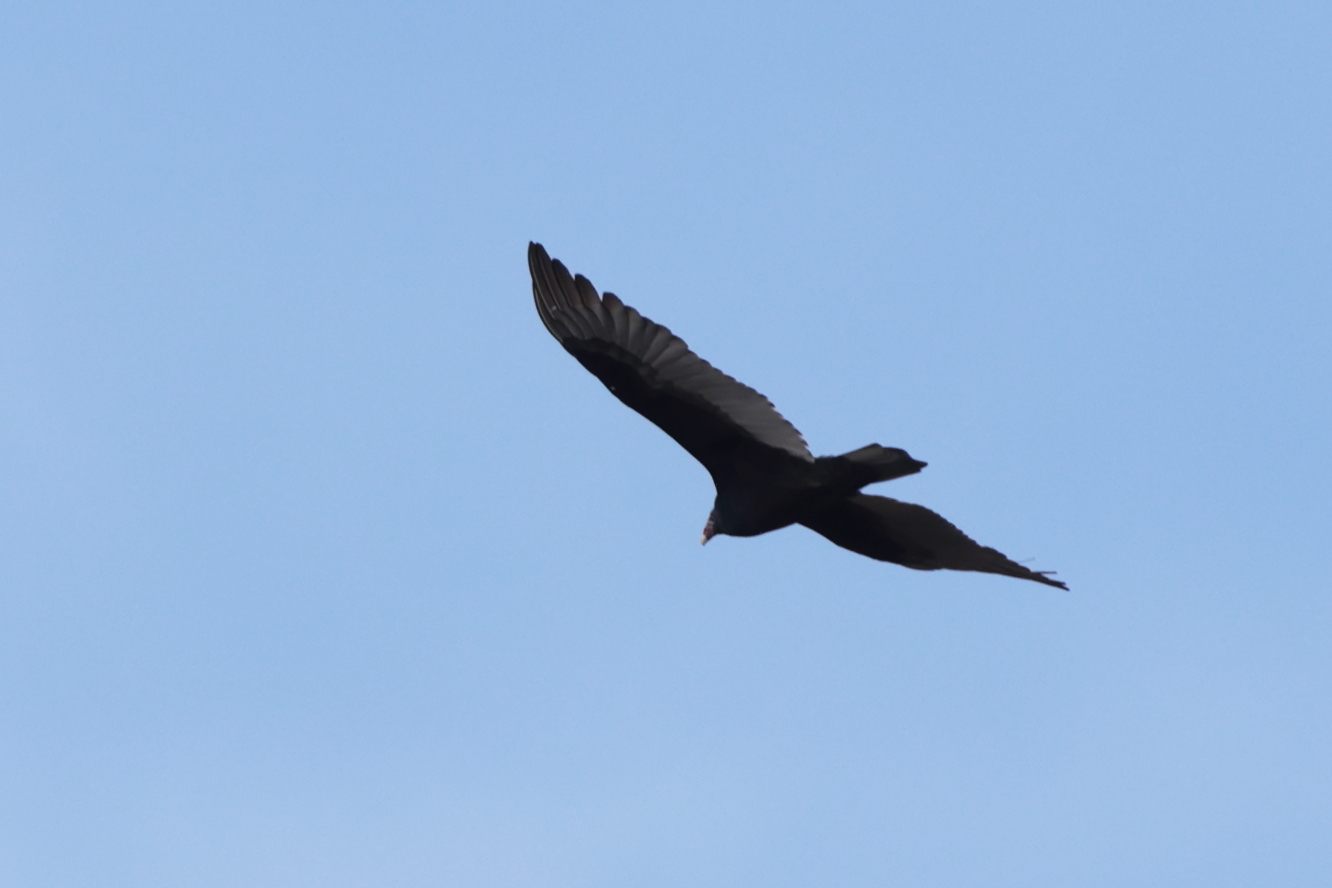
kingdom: Animalia
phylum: Chordata
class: Aves
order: Accipitriformes
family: Cathartidae
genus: Cathartes
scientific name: Cathartes aura
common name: Turkey vulture
